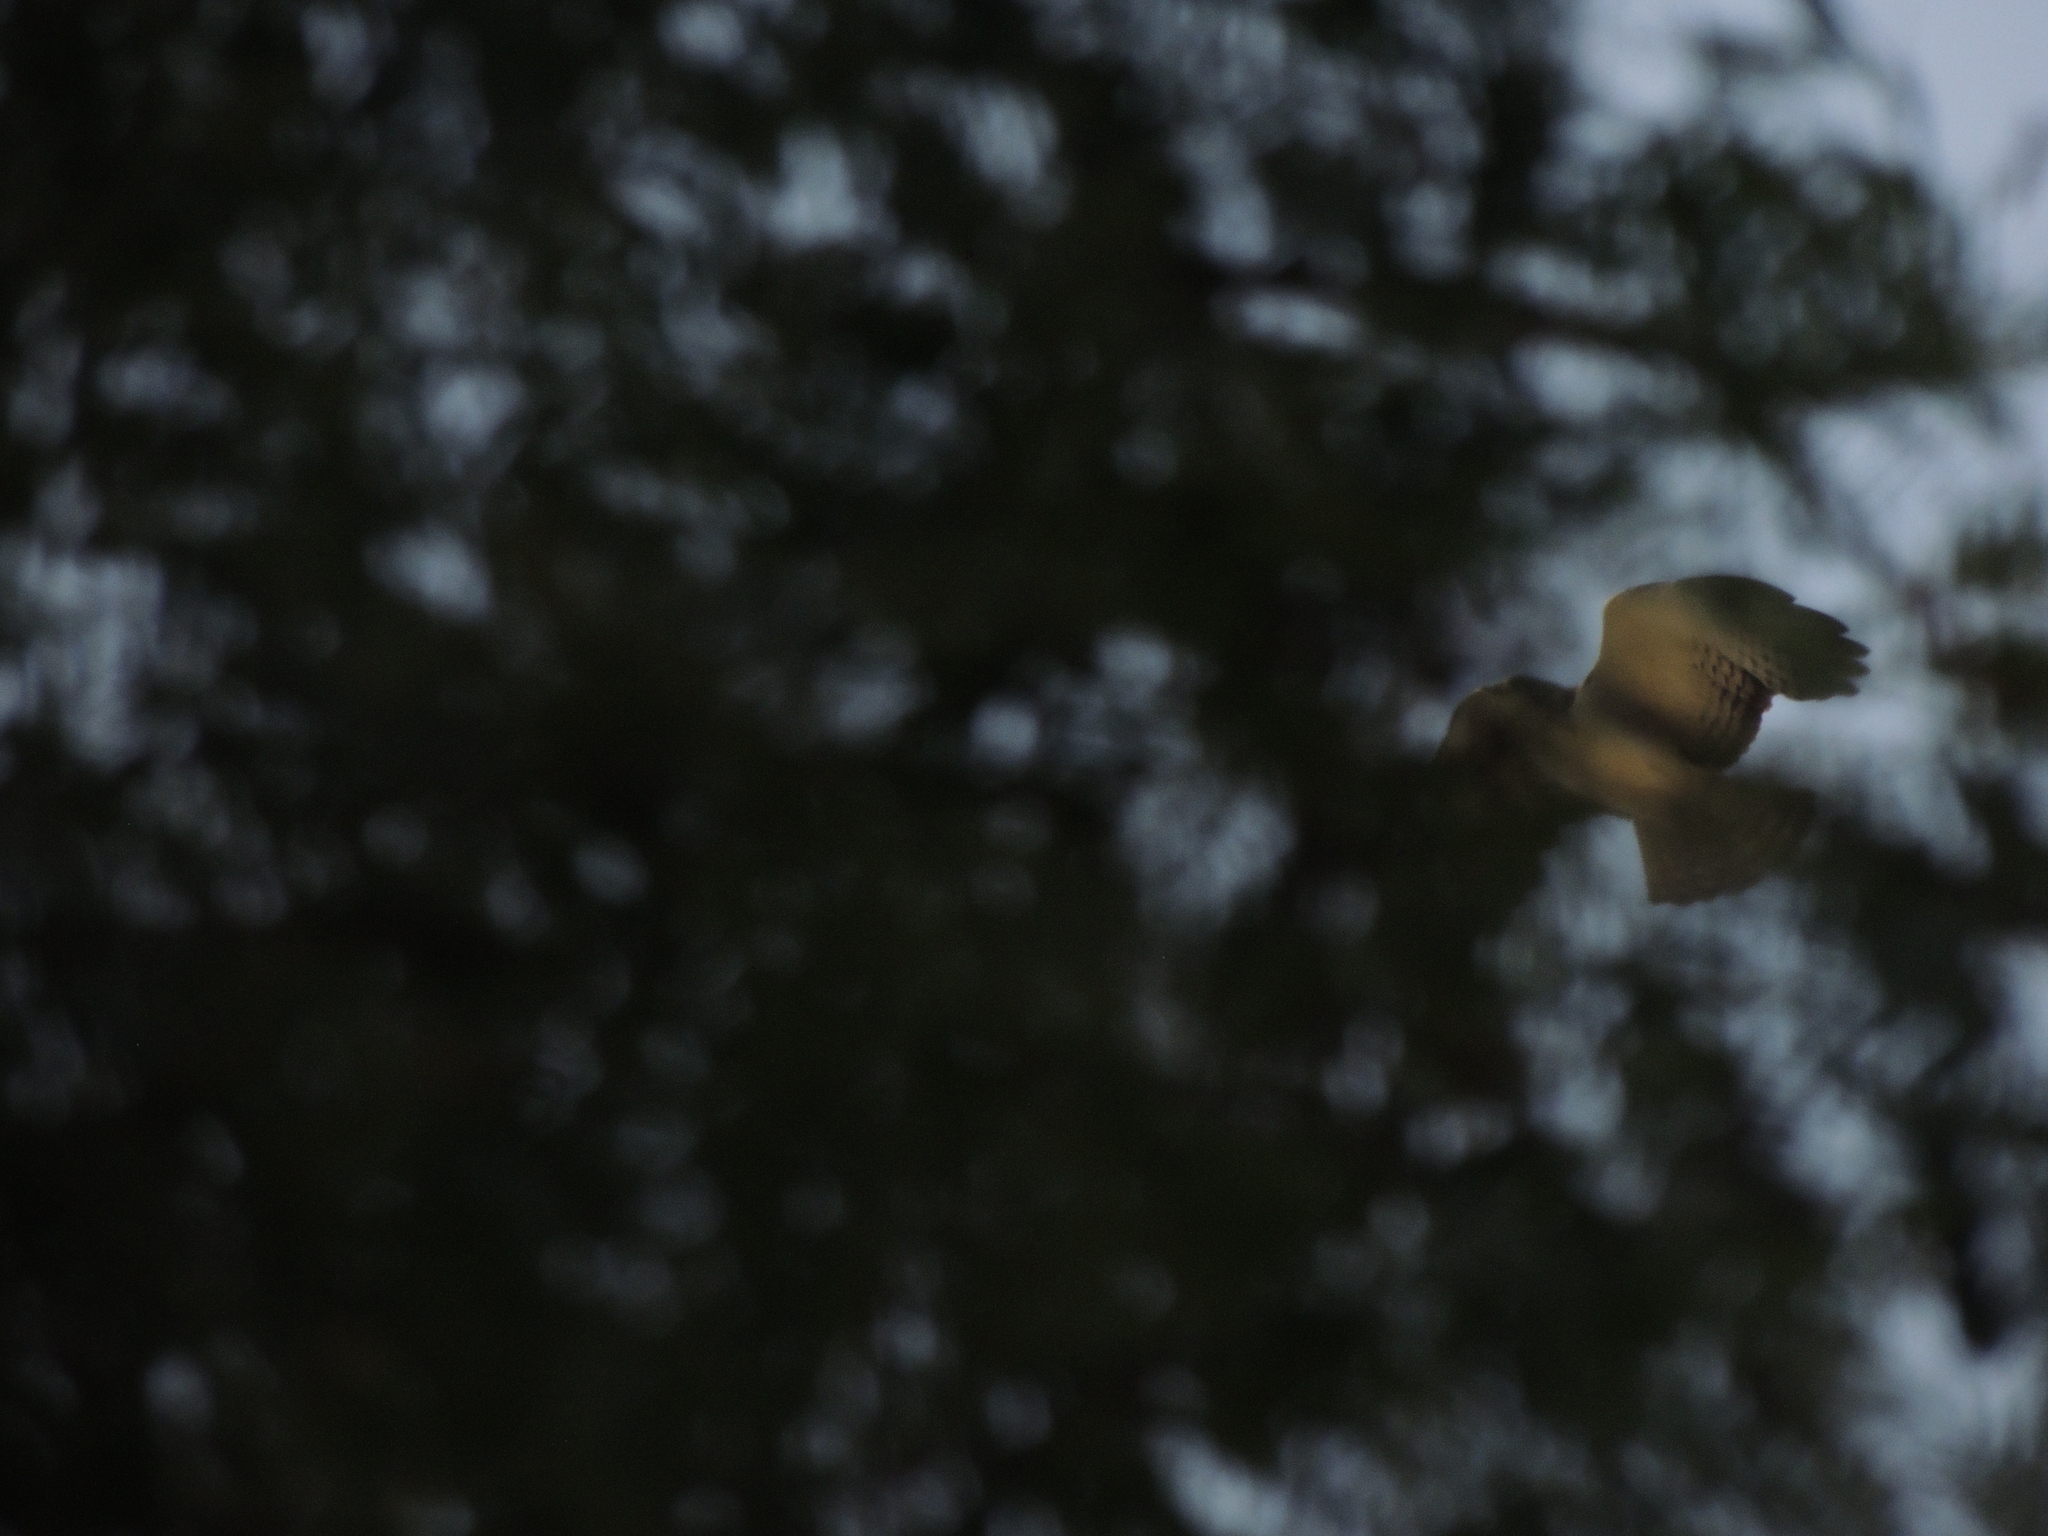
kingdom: Animalia
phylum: Chordata
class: Aves
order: Accipitriformes
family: Accipitridae
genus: Buteo
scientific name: Buteo brachyurus
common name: Short-tailed hawk
